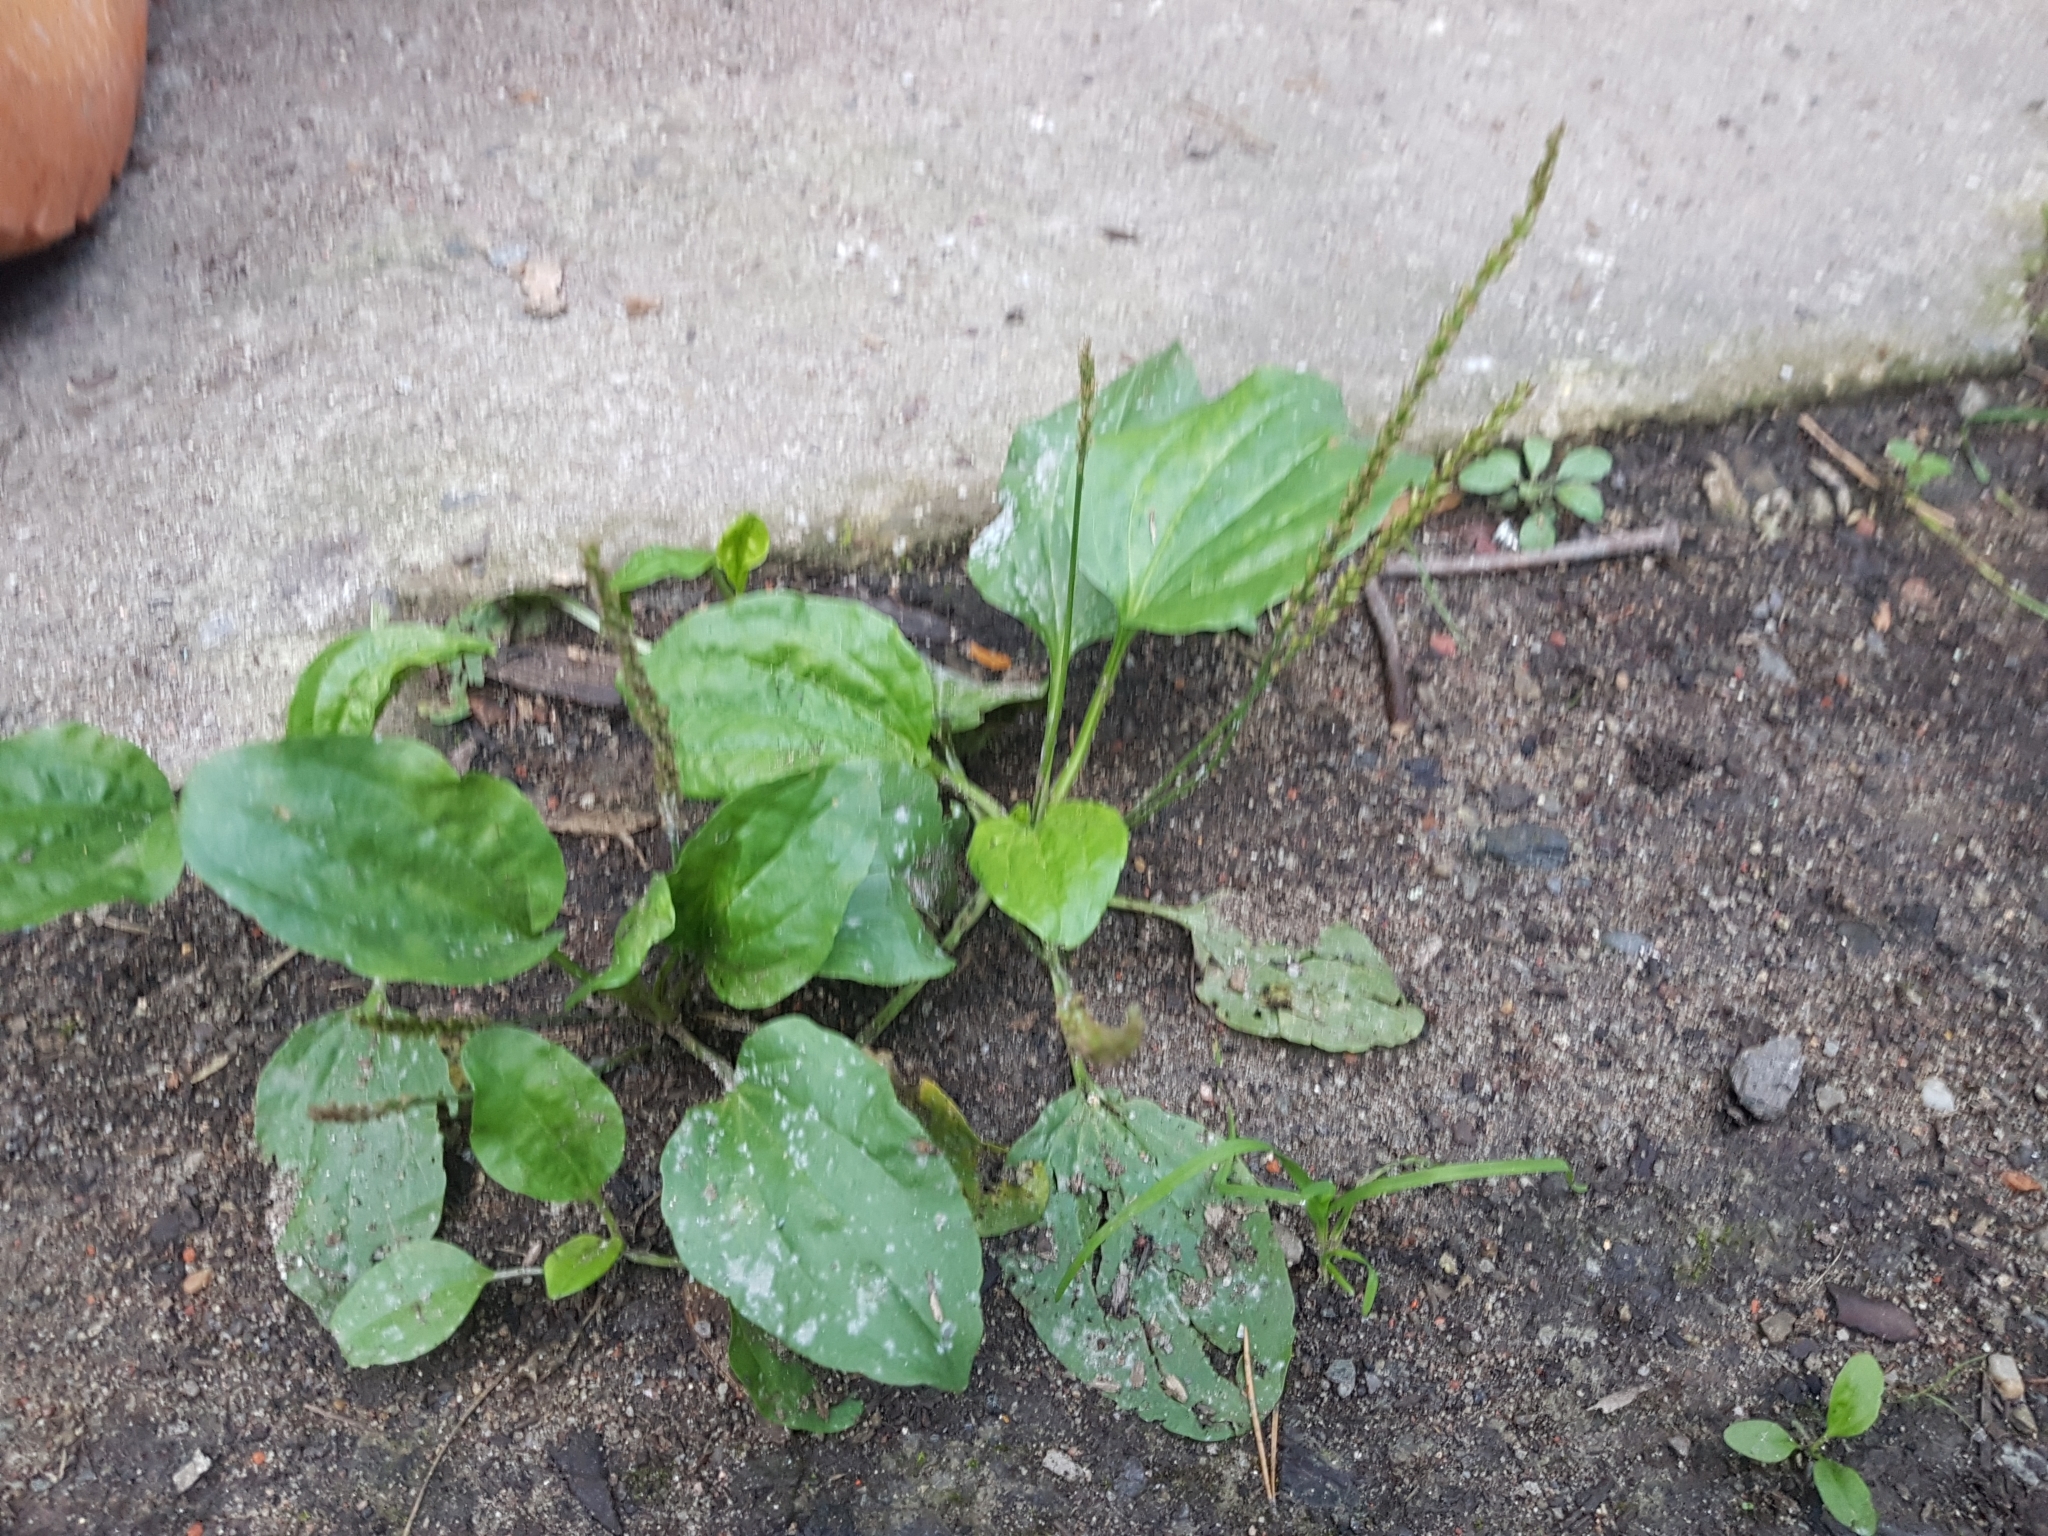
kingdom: Plantae
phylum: Tracheophyta
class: Magnoliopsida
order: Lamiales
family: Plantaginaceae
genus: Plantago
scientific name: Plantago major
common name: Common plantain
